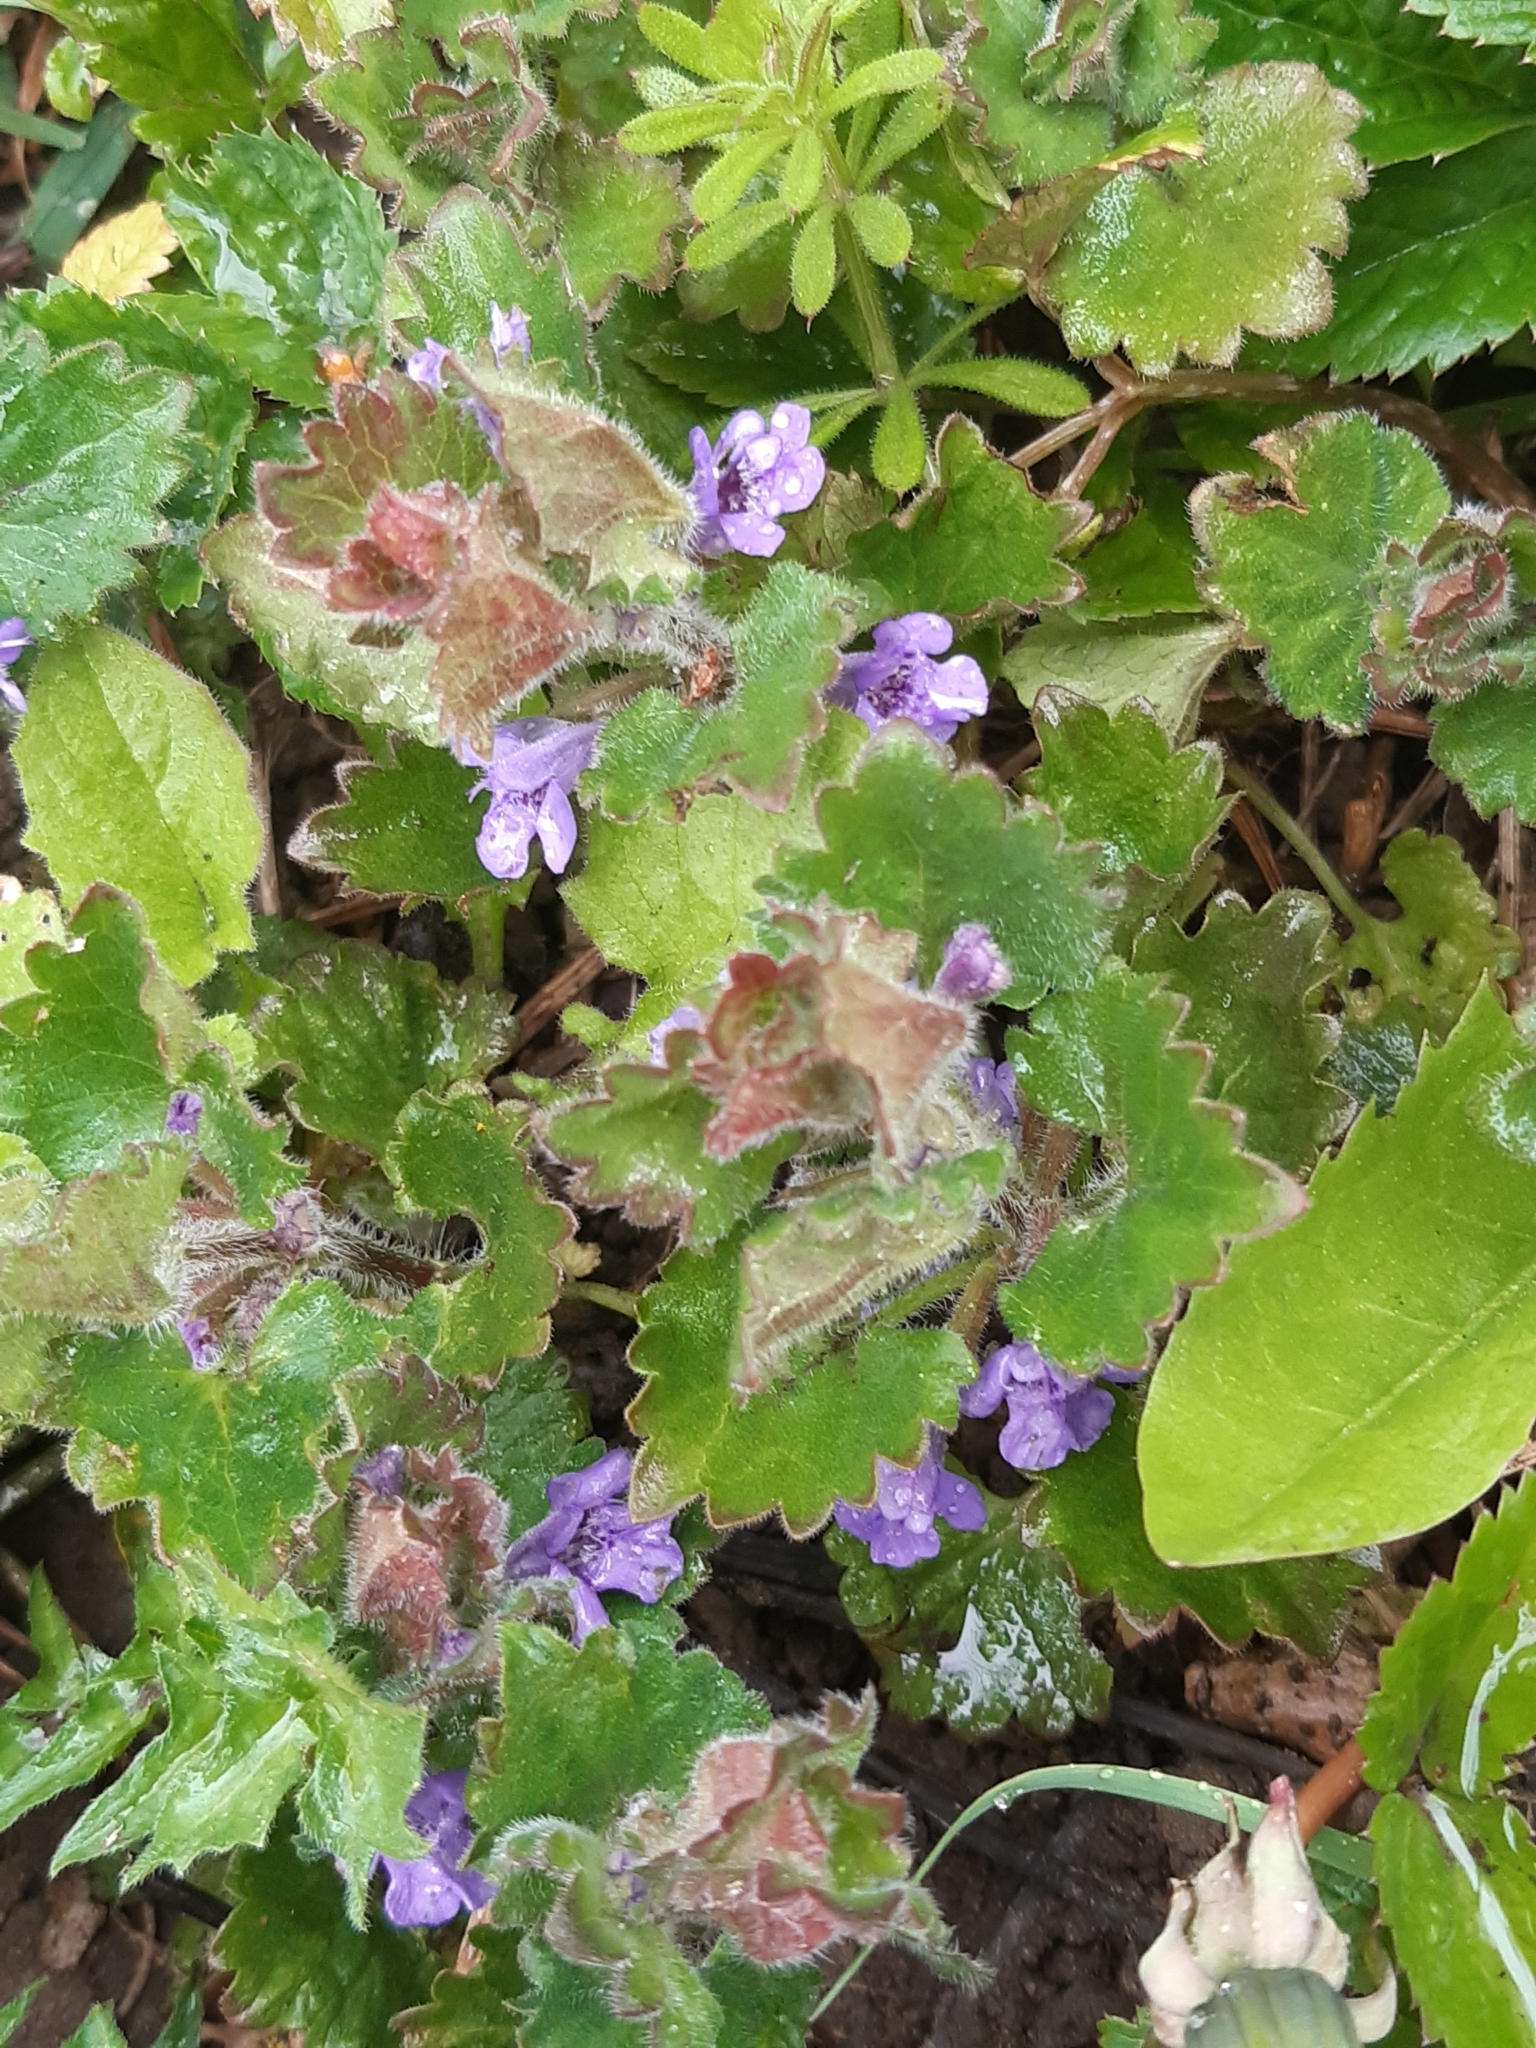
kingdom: Plantae
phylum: Tracheophyta
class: Magnoliopsida
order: Lamiales
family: Lamiaceae
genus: Glechoma
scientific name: Glechoma hederacea
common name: Ground ivy
